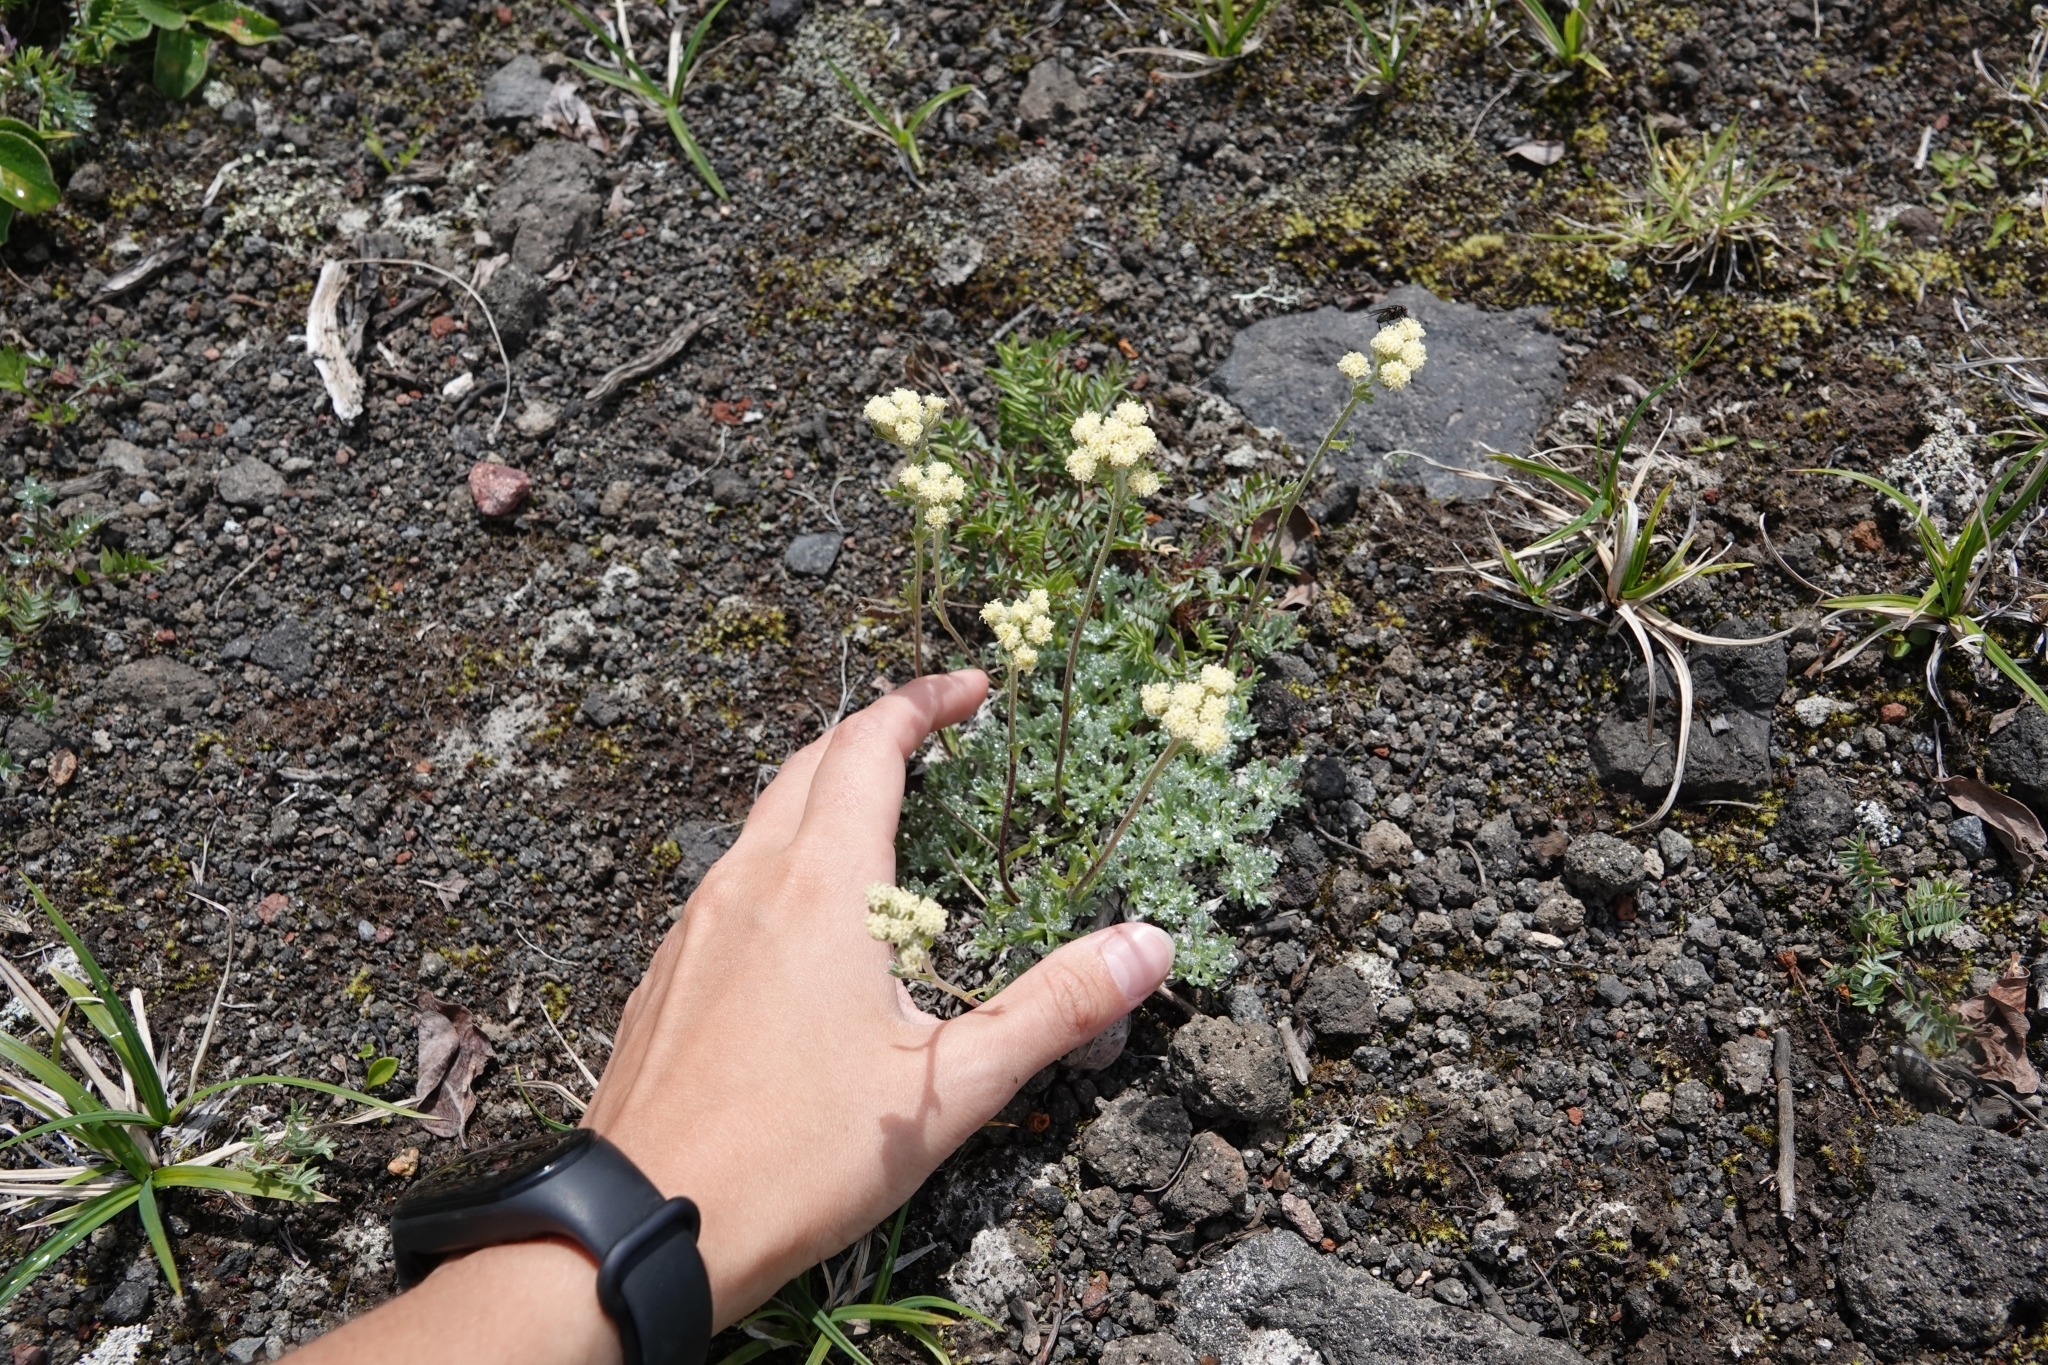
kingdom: Plantae
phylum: Tracheophyta
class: Magnoliopsida
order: Asterales
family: Asteraceae
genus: Artemisia
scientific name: Artemisia glomerata
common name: Pacific alpine wormwood
